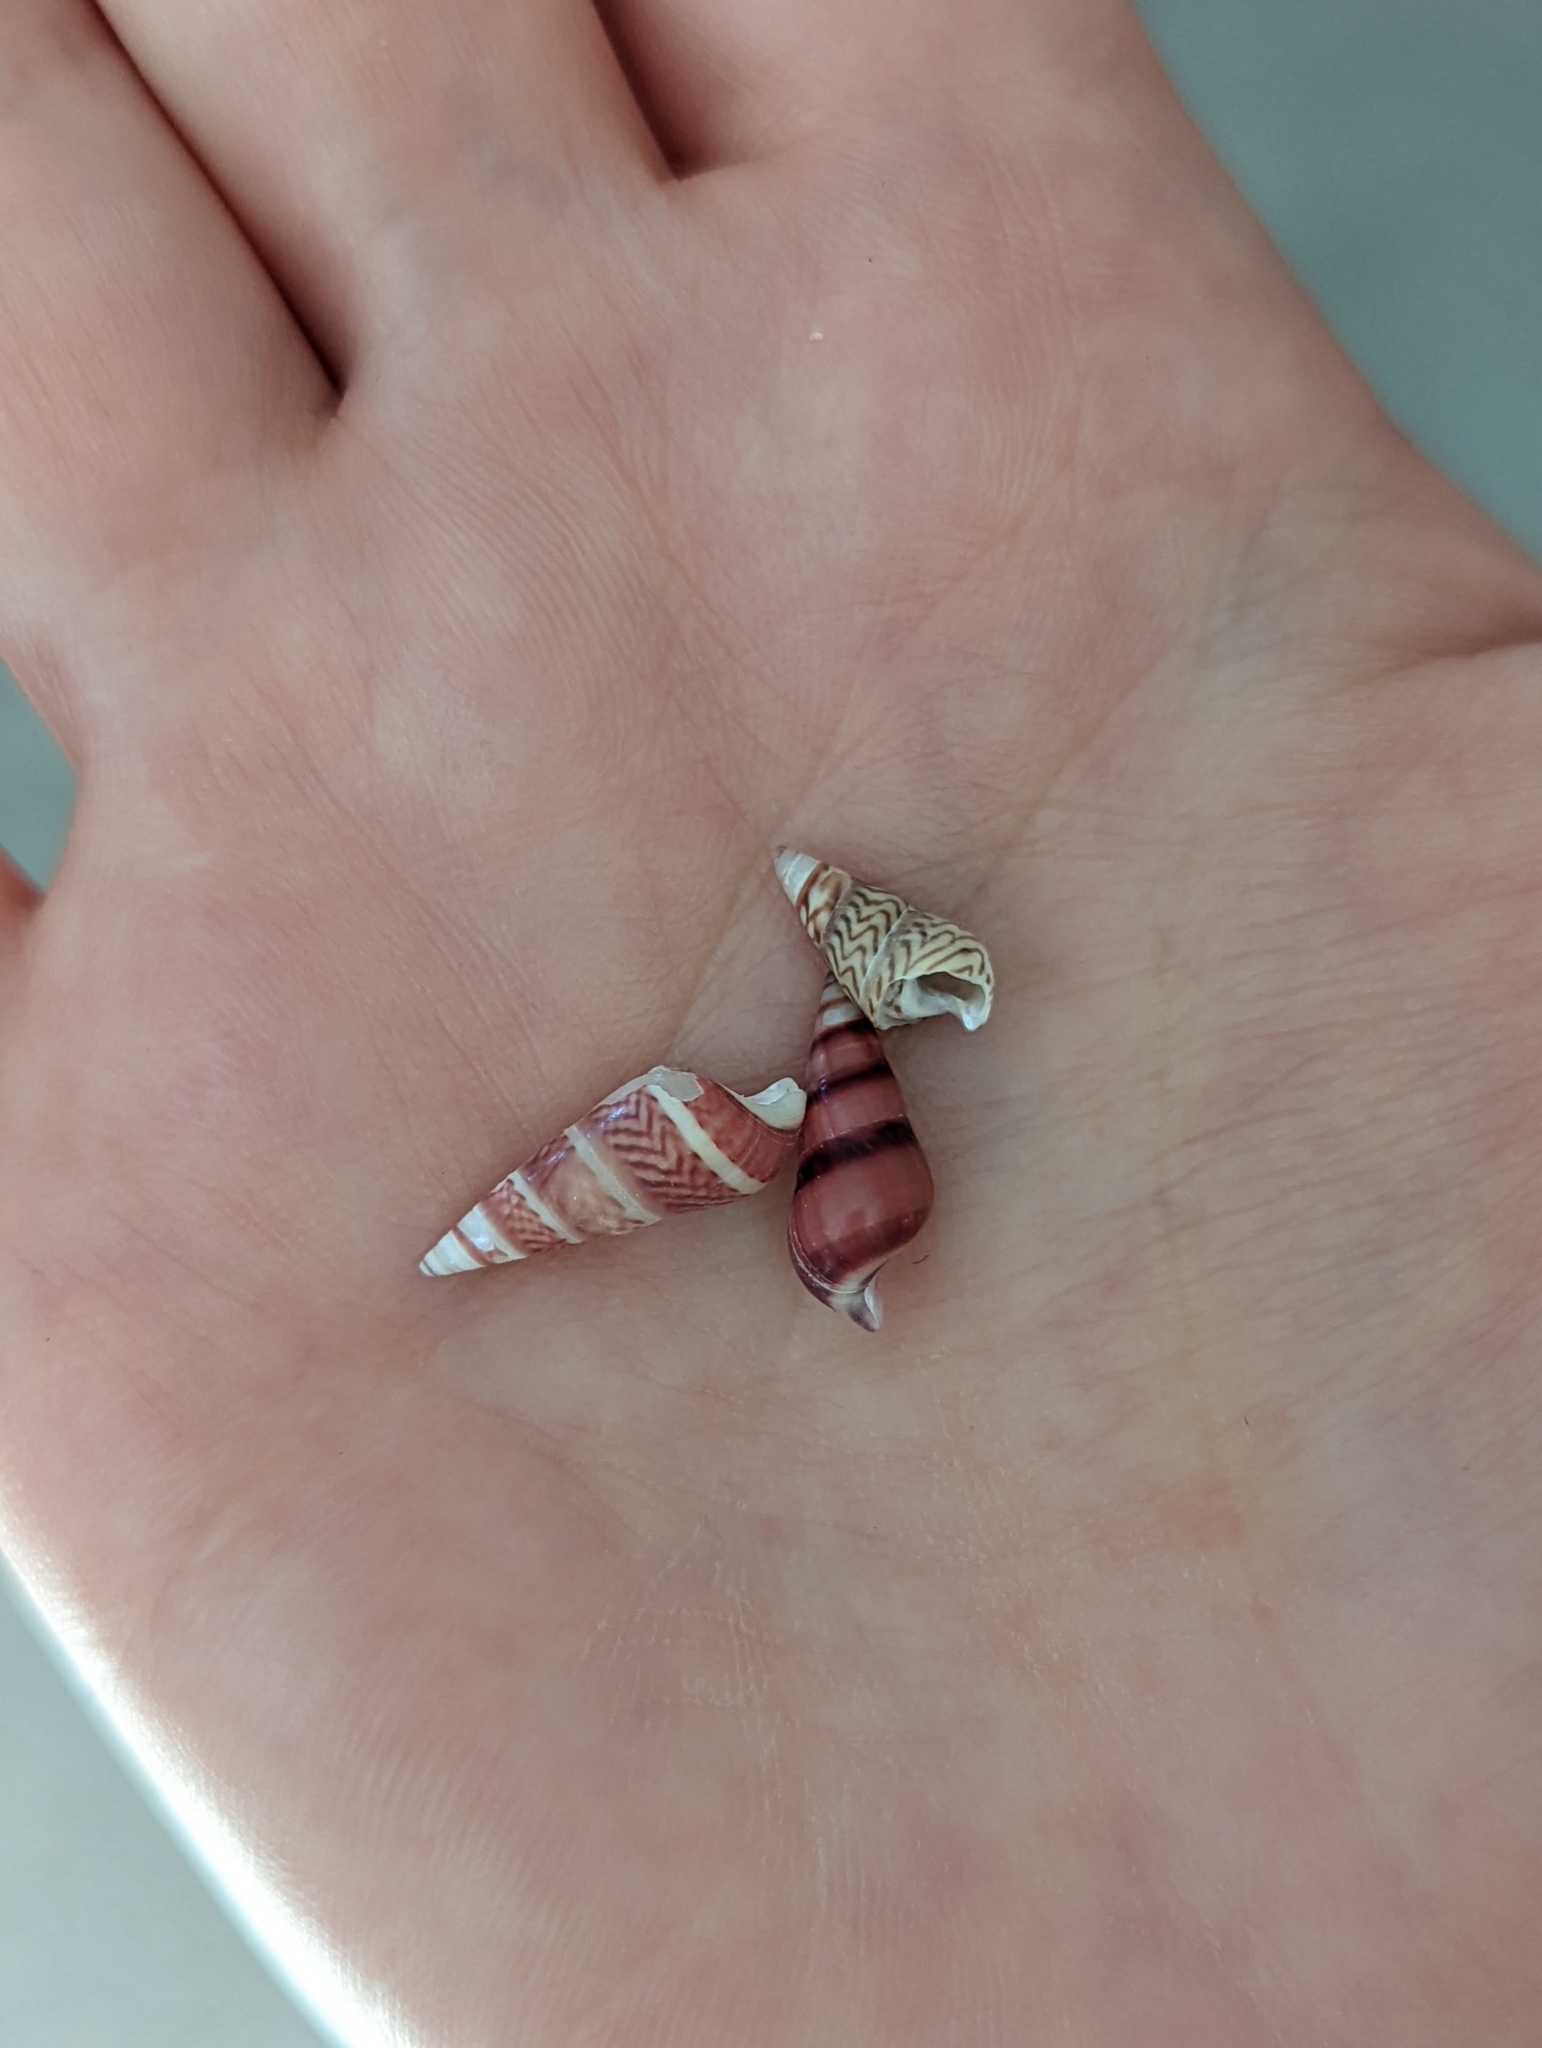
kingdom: Animalia
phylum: Mollusca
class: Gastropoda
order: Trochida
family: Trochidae
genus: Bankivia
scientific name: Bankivia fasciata
